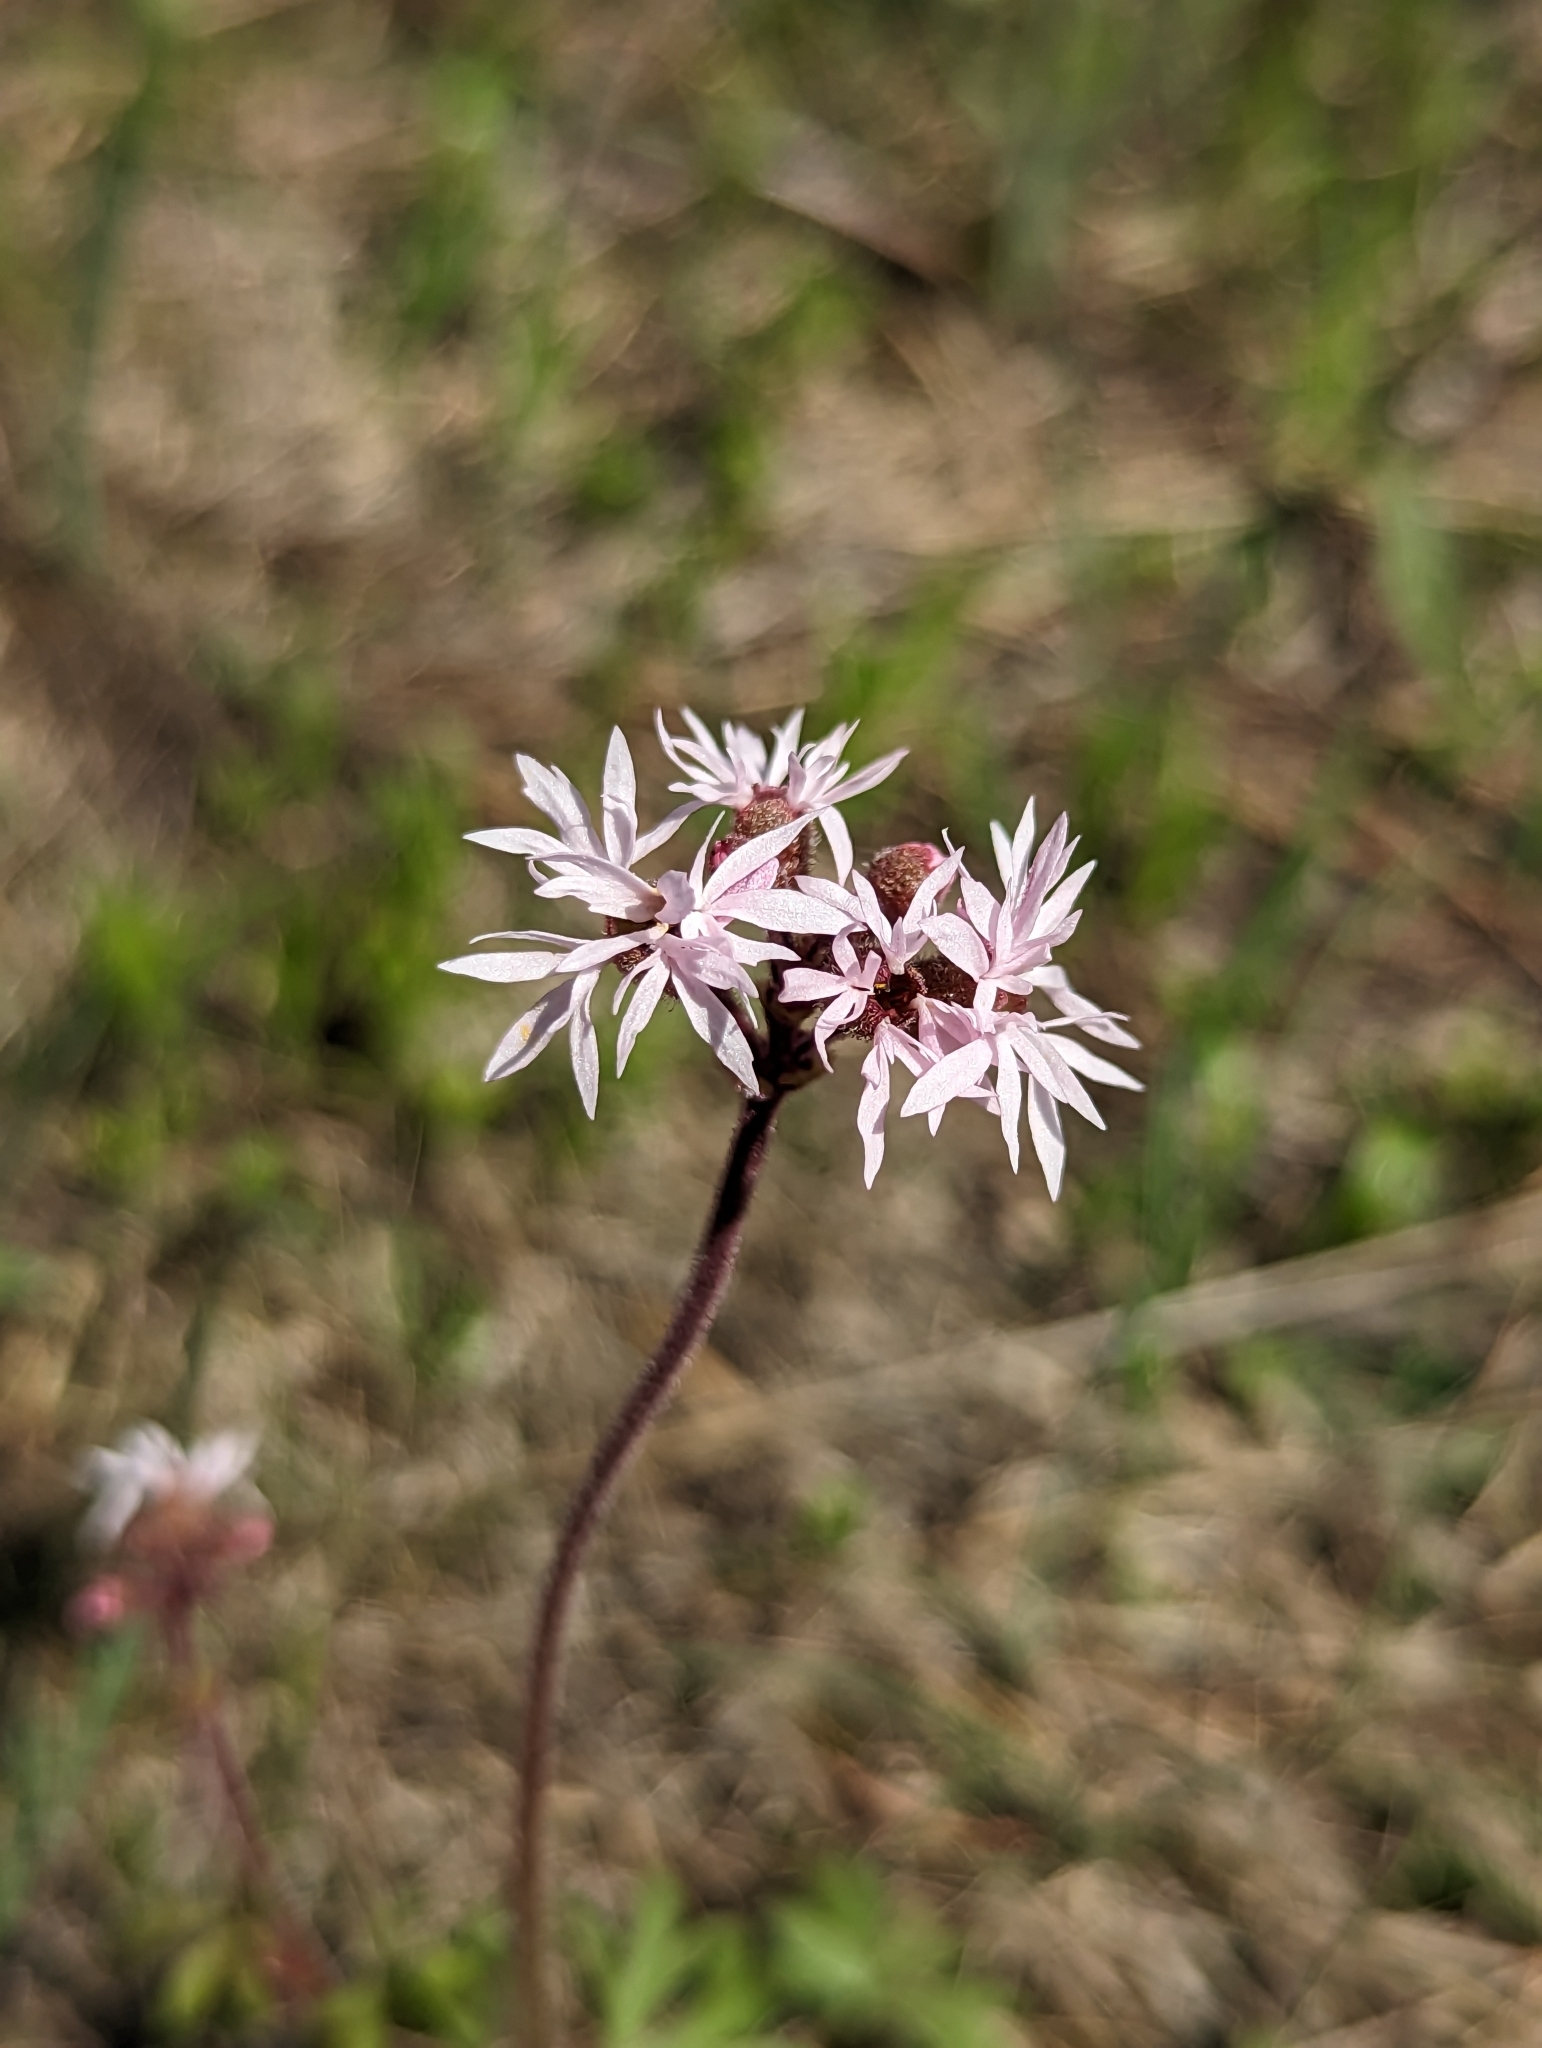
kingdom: Plantae
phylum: Tracheophyta
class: Magnoliopsida
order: Saxifragales
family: Saxifragaceae
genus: Lithophragma
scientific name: Lithophragma glabrum
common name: Bulbous prairie-star
